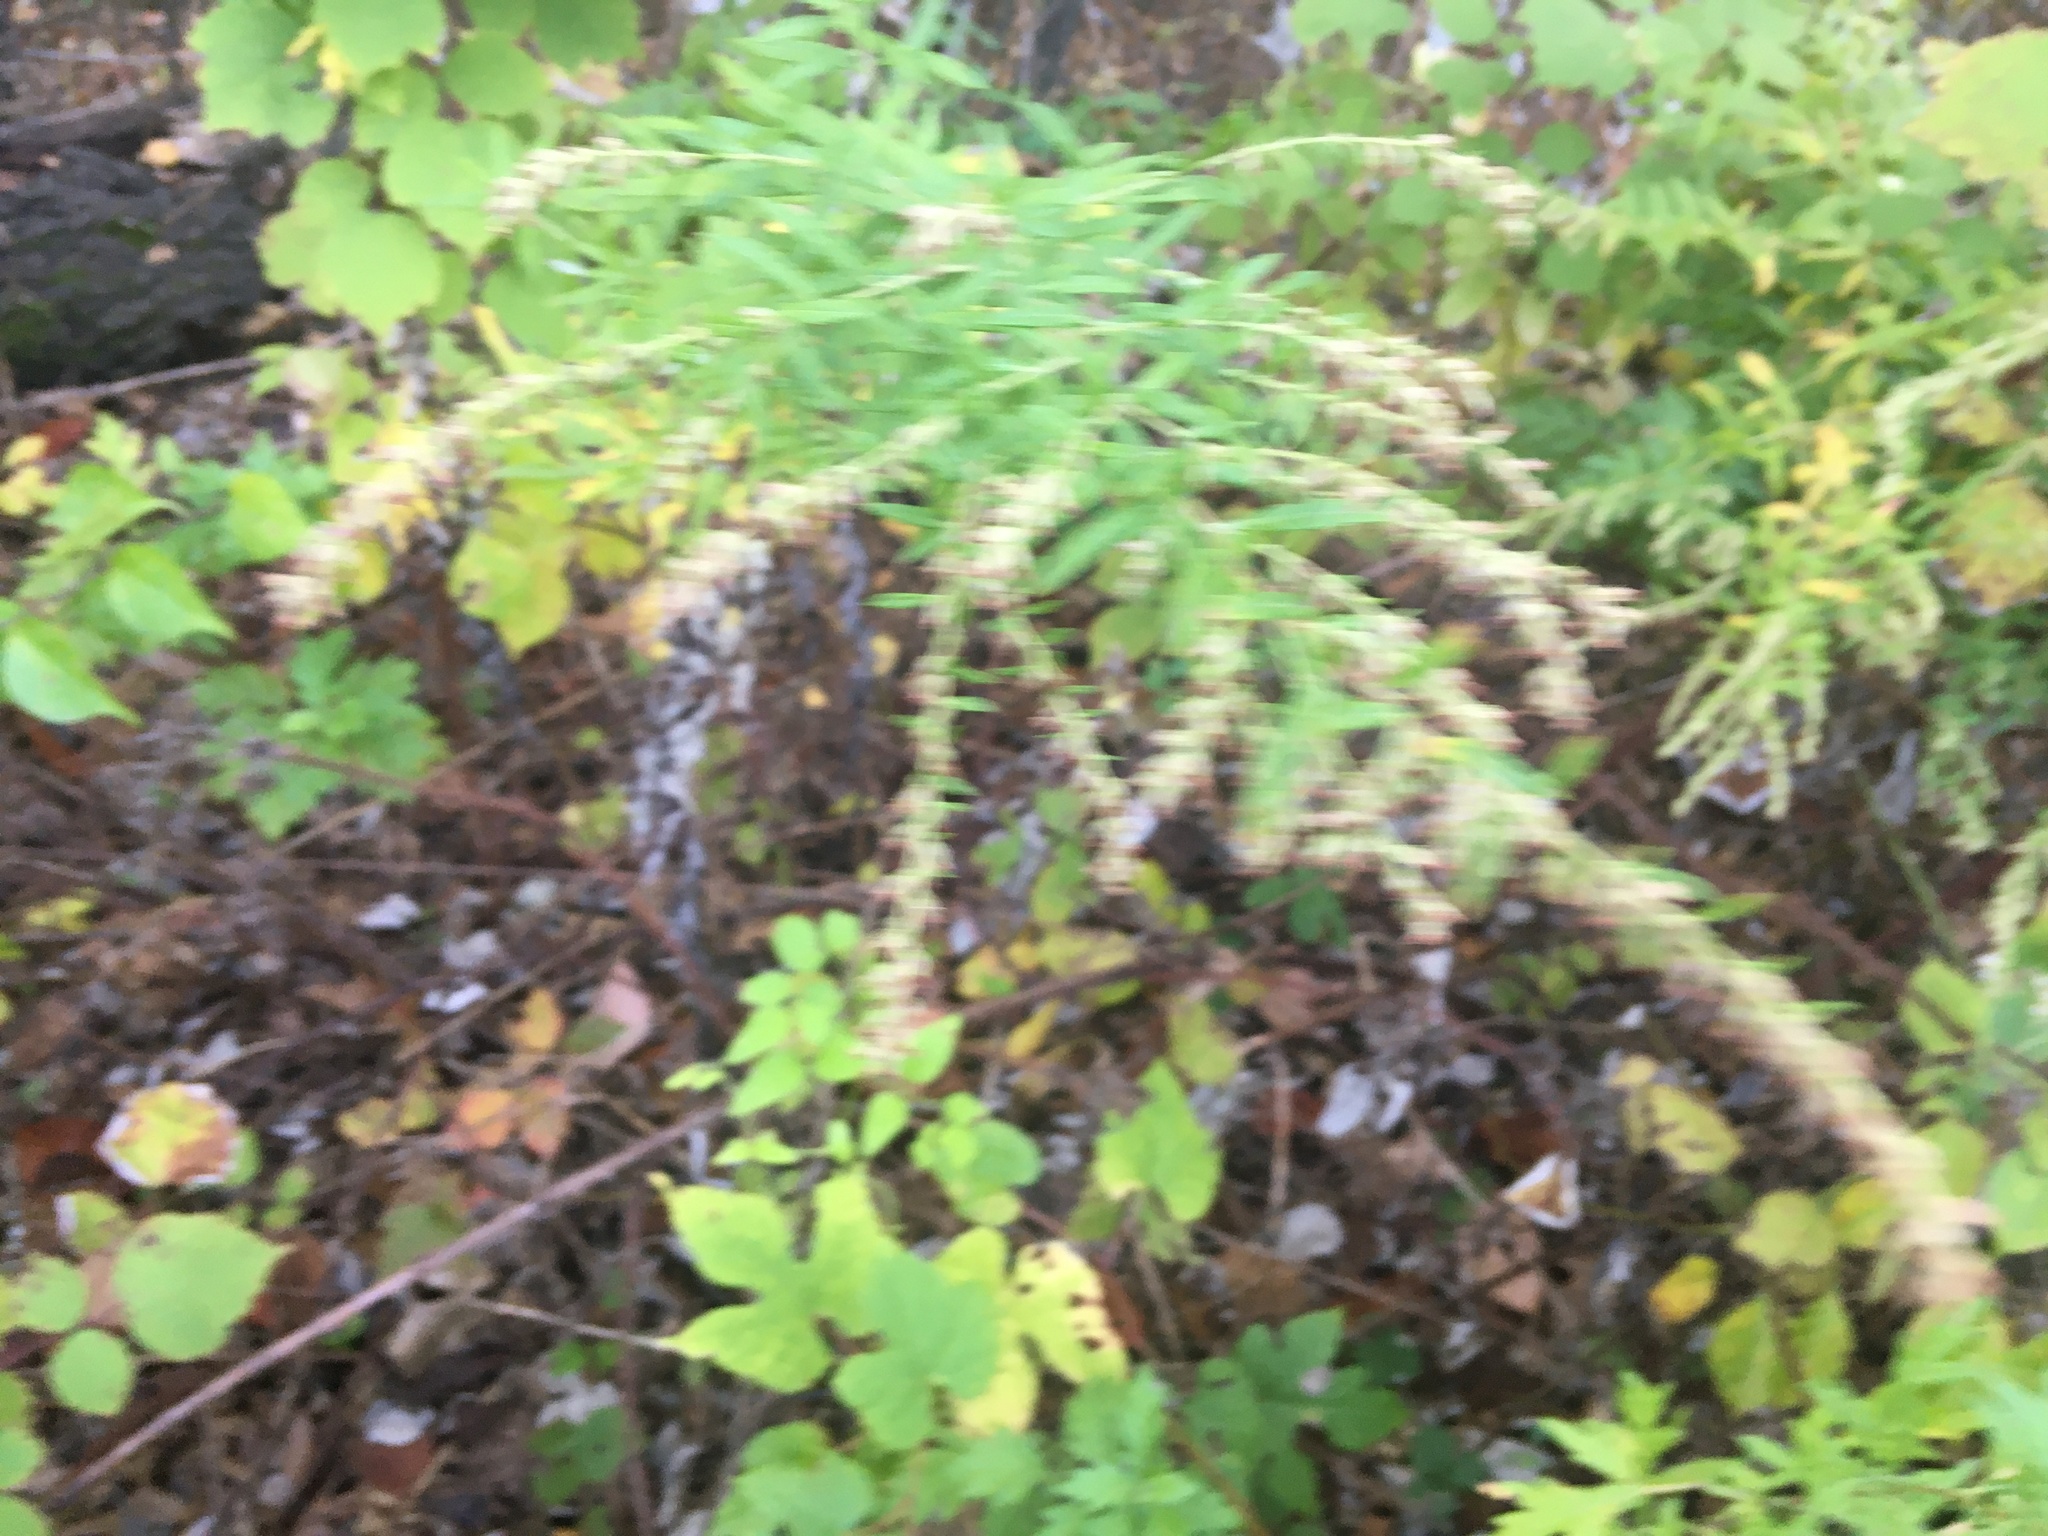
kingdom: Plantae
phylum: Tracheophyta
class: Magnoliopsida
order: Asterales
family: Asteraceae
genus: Artemisia
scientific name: Artemisia vulgaris
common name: Mugwort
